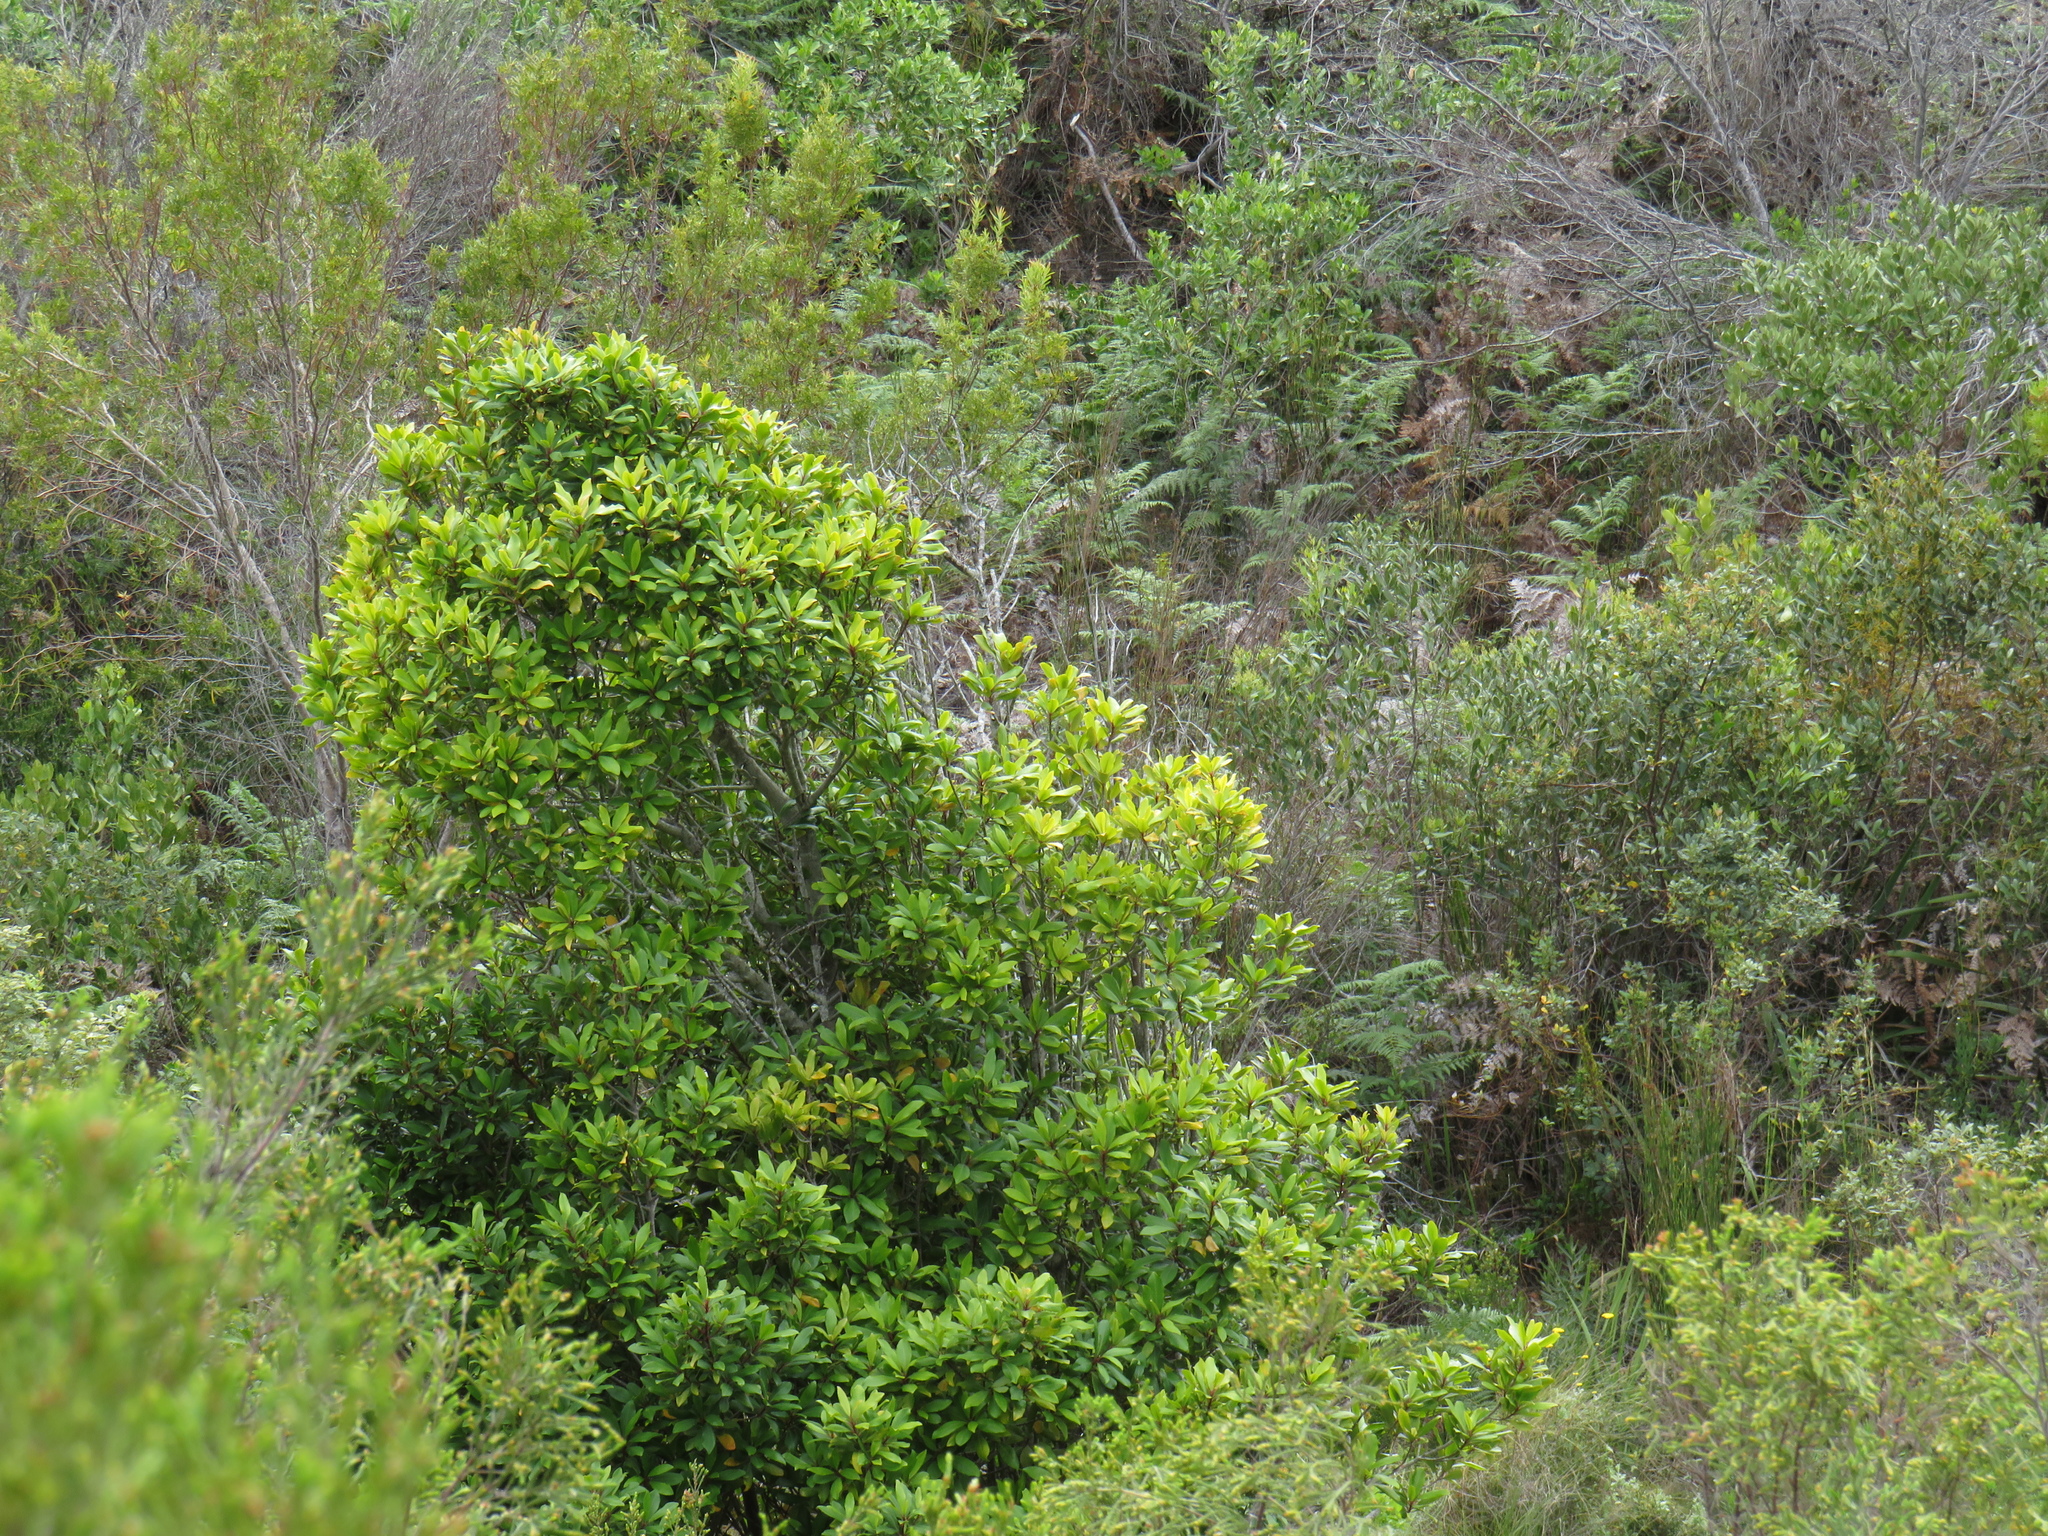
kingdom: Plantae
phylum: Tracheophyta
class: Magnoliopsida
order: Ericales
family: Primulaceae
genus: Myrsine
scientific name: Myrsine melanophloeos
